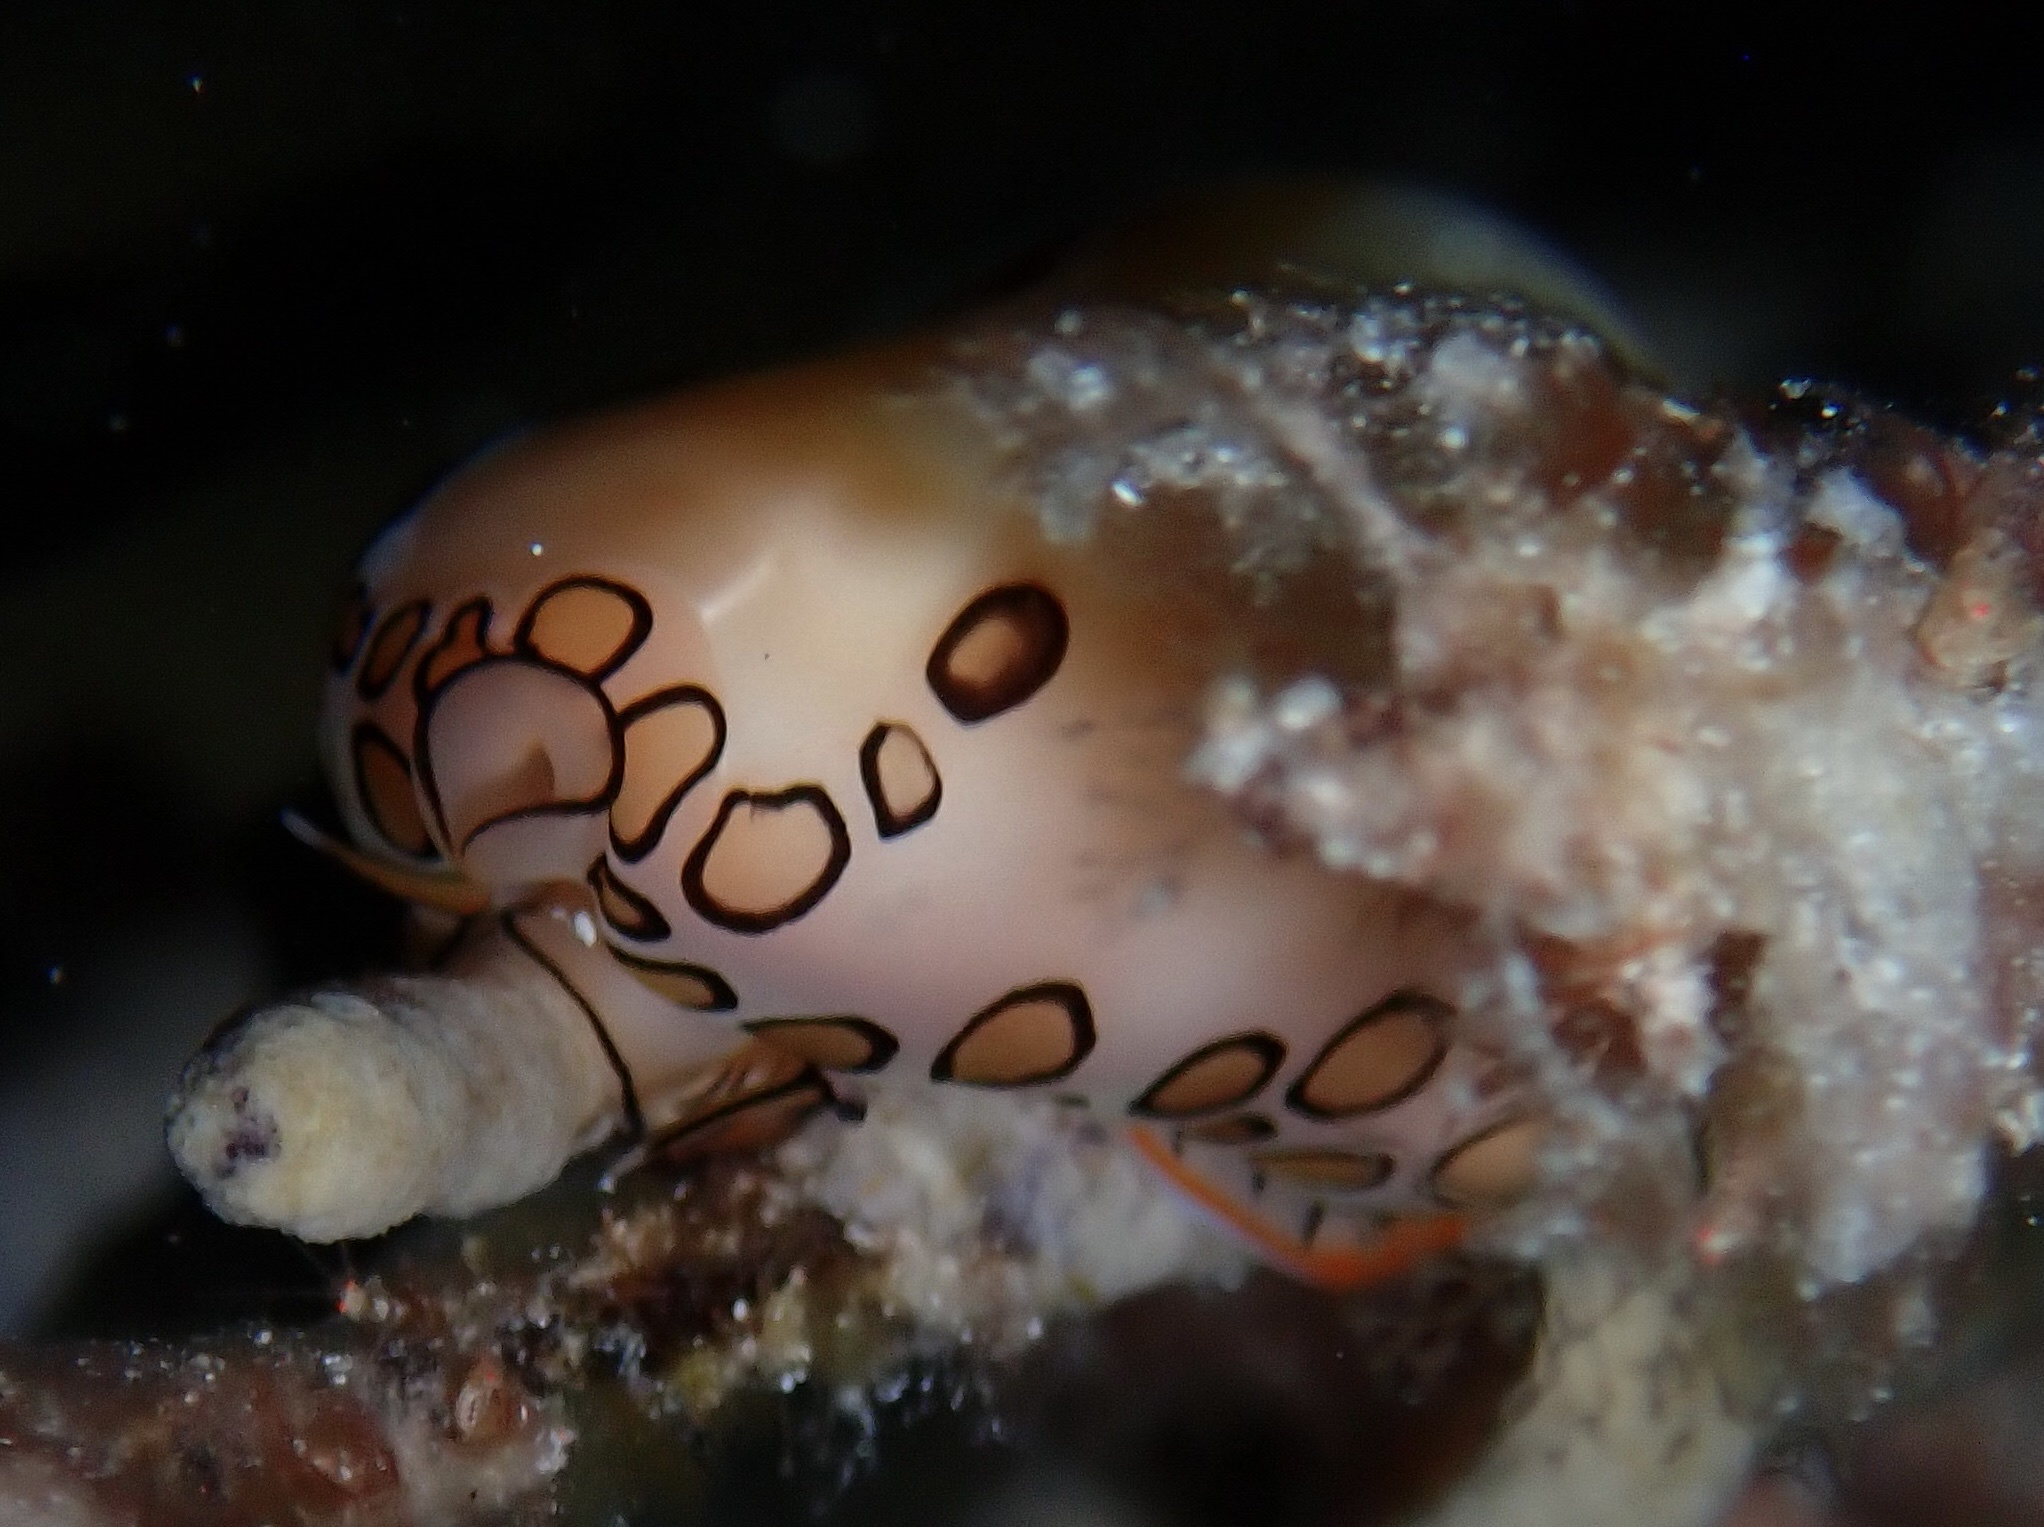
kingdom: Animalia
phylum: Mollusca
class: Gastropoda
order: Littorinimorpha
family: Ovulidae
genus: Cyphoma
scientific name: Cyphoma gibbosum
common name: Flamingo tongue
